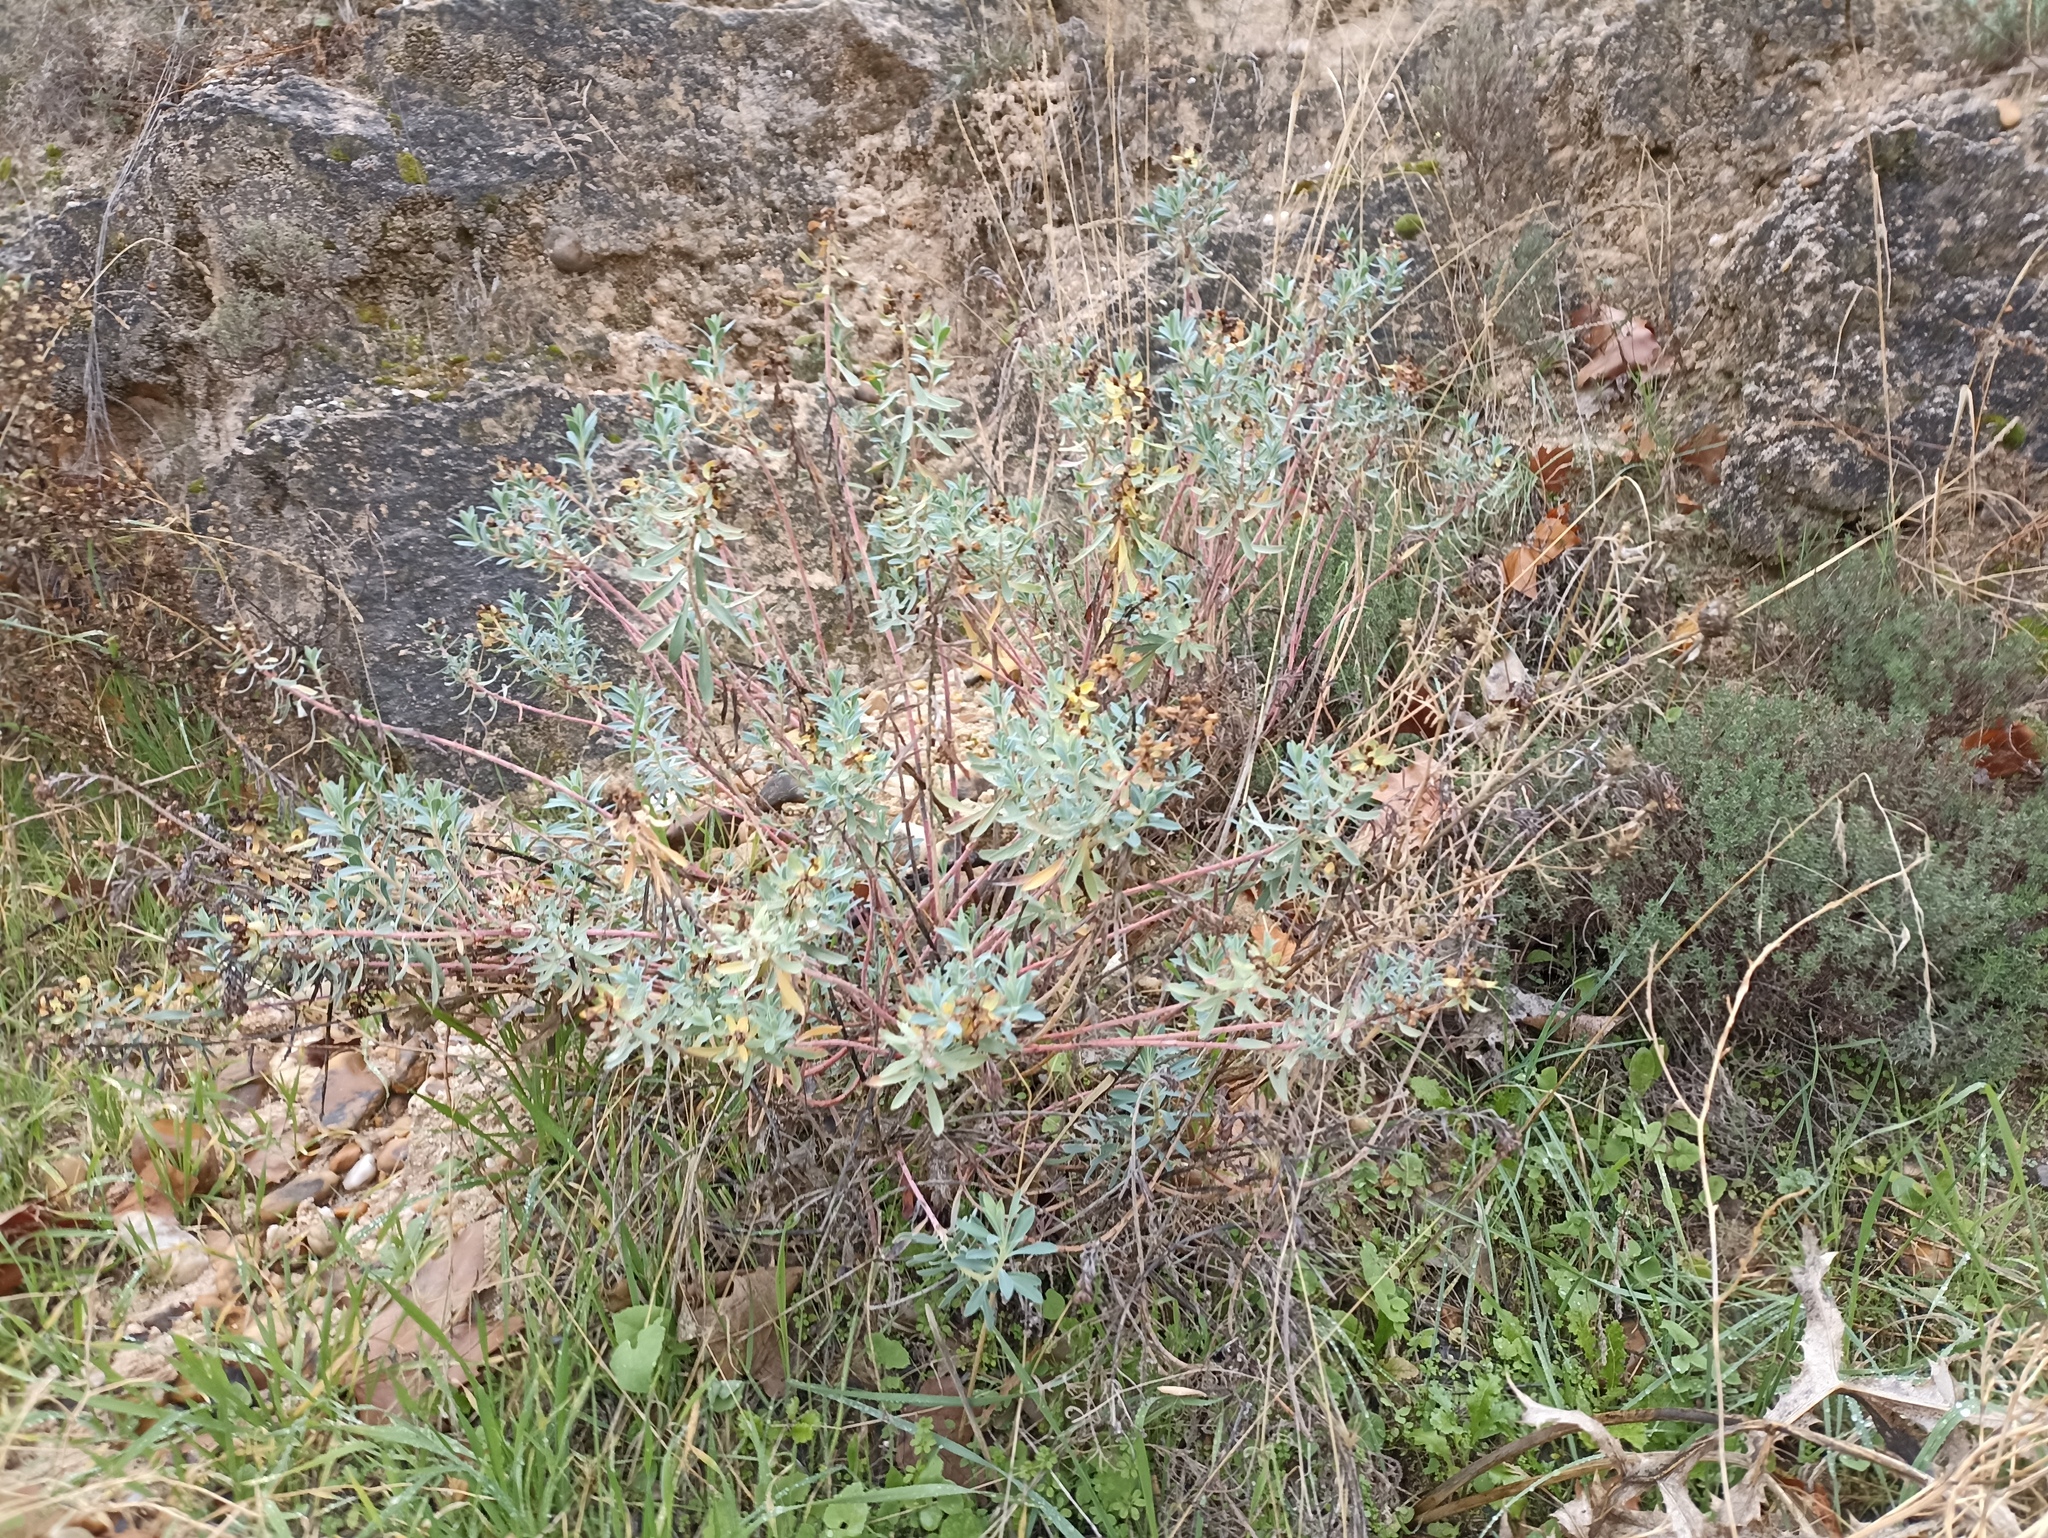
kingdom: Plantae
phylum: Tracheophyta
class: Magnoliopsida
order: Malpighiales
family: Euphorbiaceae
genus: Euphorbia
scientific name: Euphorbia nicaeensis
